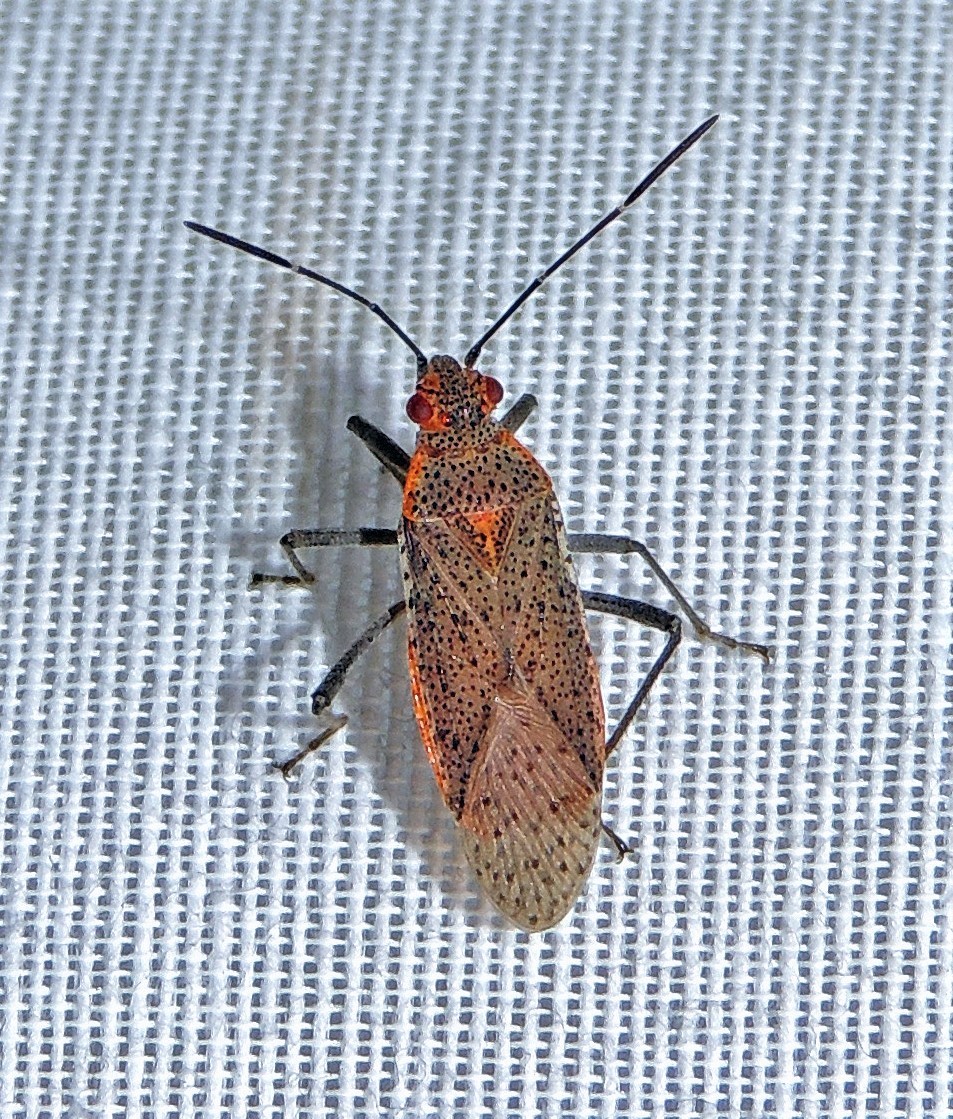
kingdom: Animalia
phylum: Arthropoda
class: Insecta
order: Hemiptera
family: Rhopalidae
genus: Jadera
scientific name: Jadera coturnix
